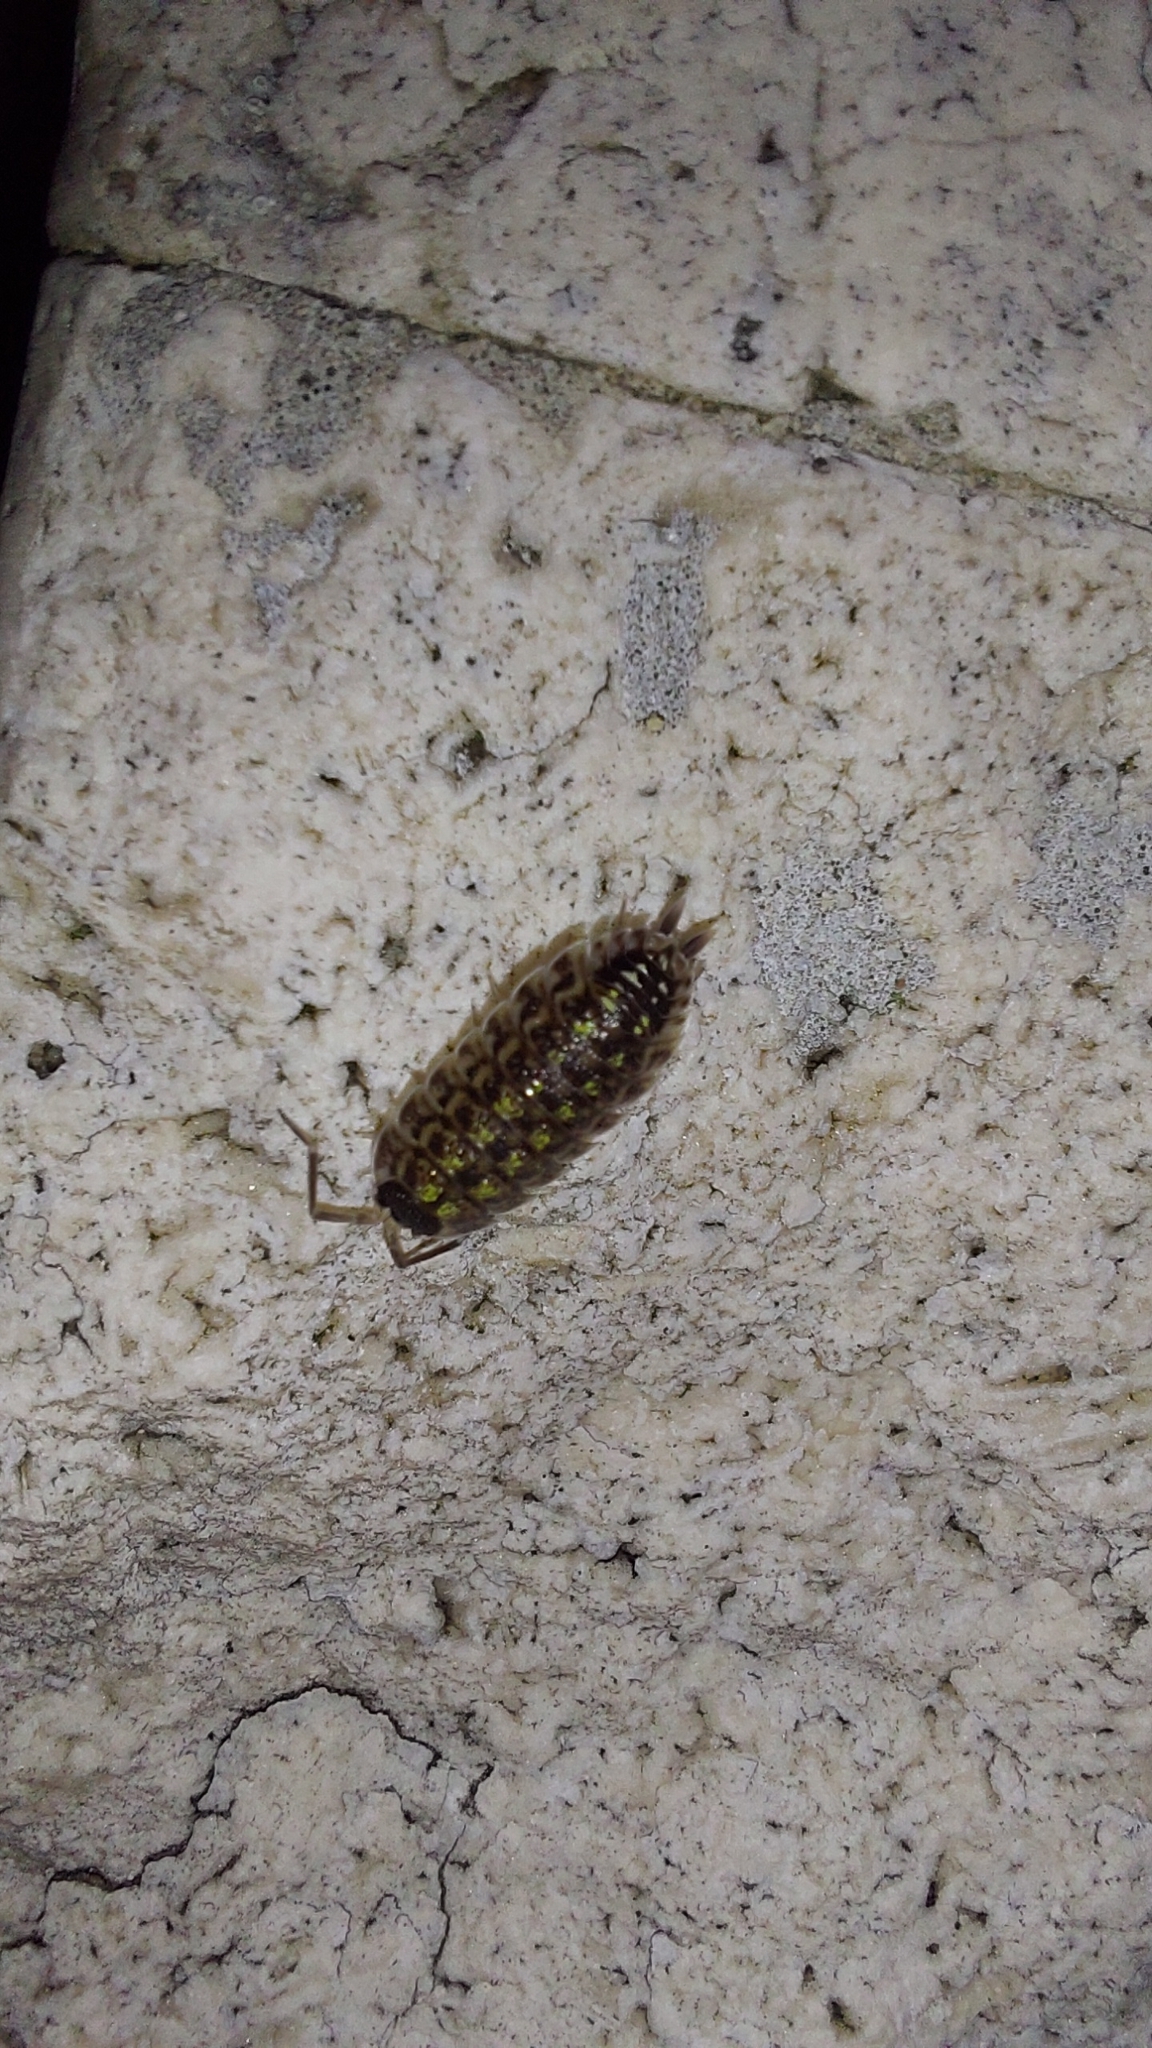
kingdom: Animalia
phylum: Arthropoda
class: Malacostraca
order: Isopoda
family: Porcellionidae
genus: Porcellio
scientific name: Porcellio spinicornis
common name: Painted woodlouse
